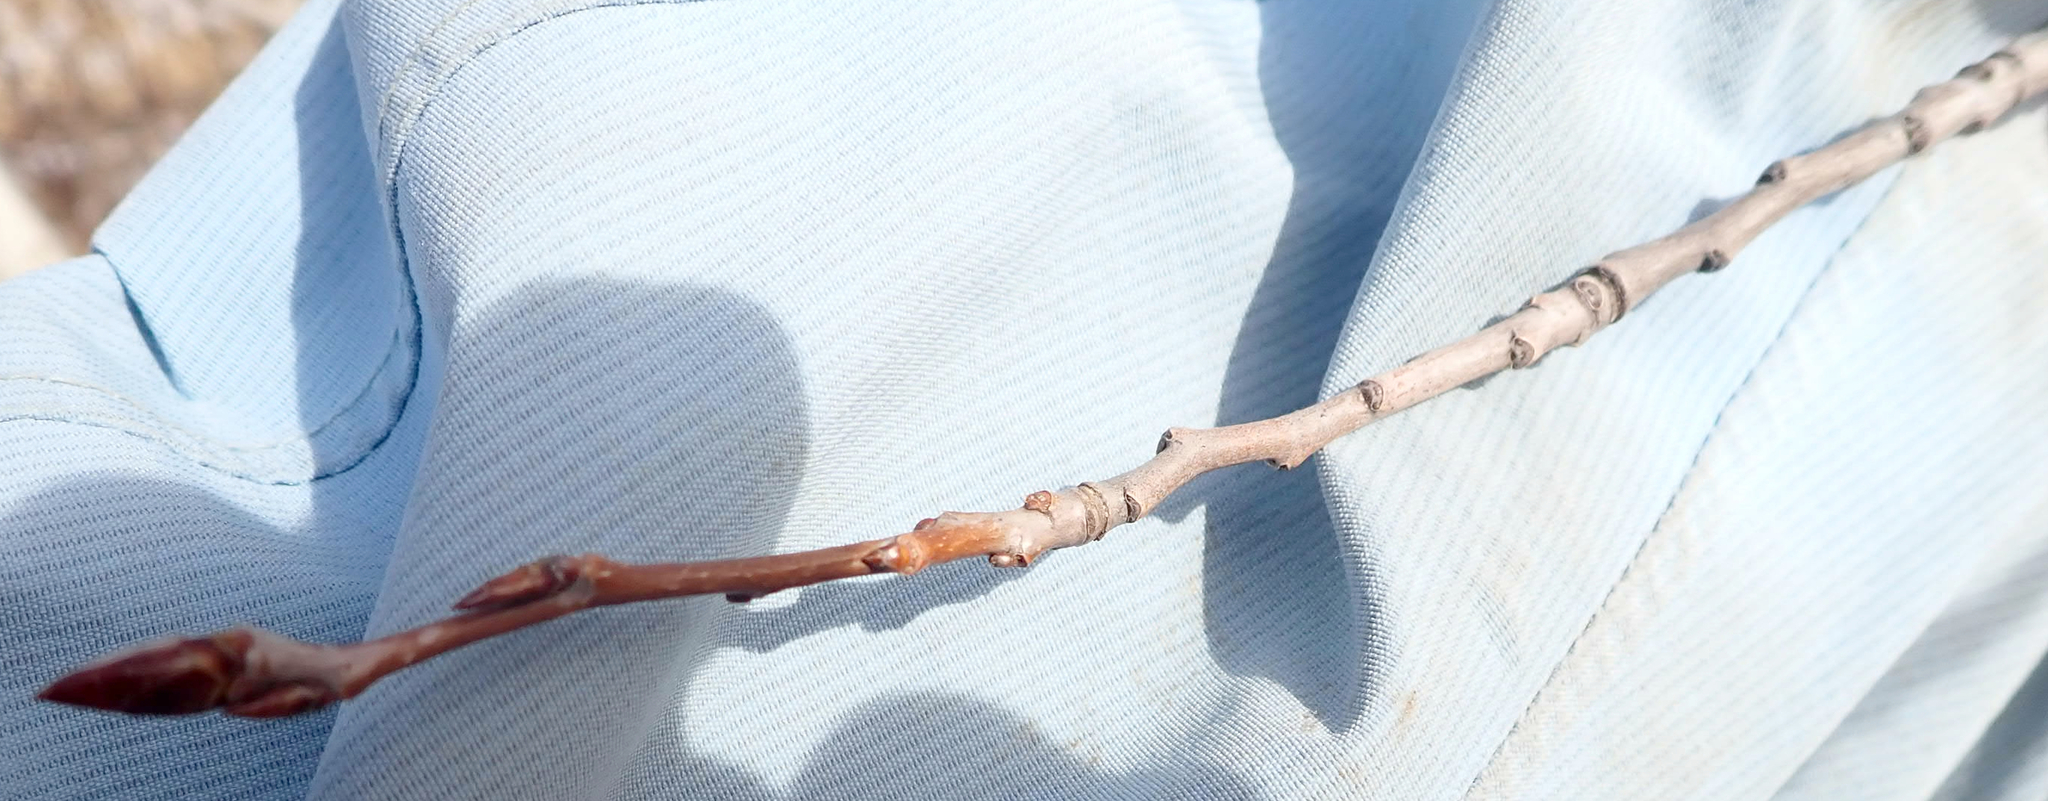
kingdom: Plantae
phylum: Tracheophyta
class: Magnoliopsida
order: Malpighiales
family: Salicaceae
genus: Populus
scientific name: Populus balsamifera
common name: Balsam poplar
